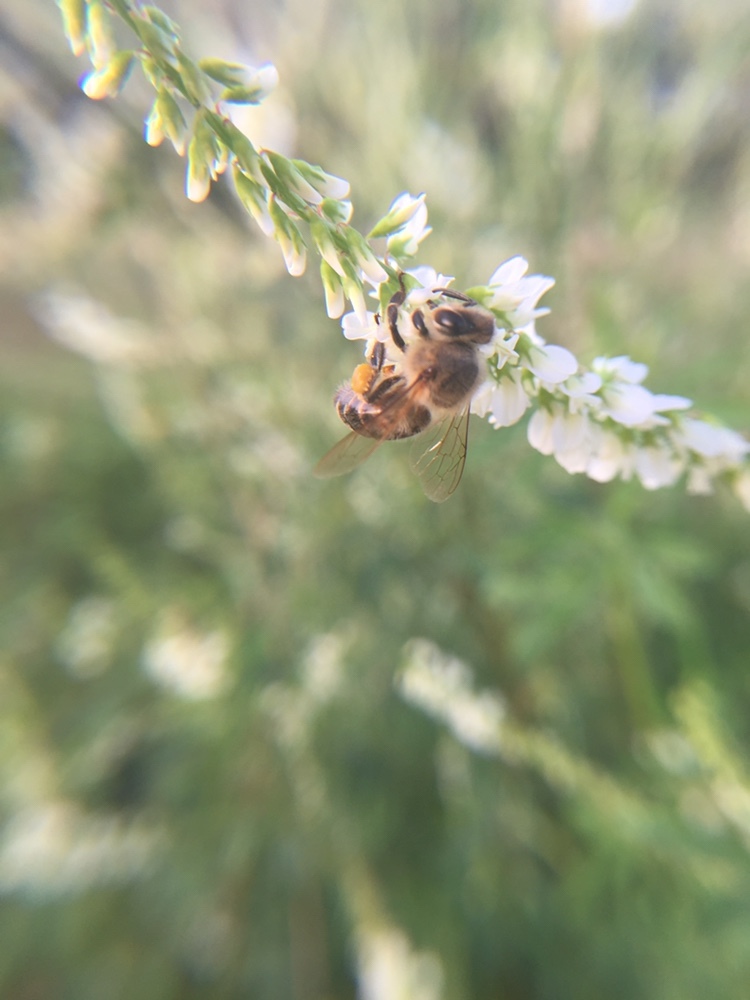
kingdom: Animalia
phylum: Arthropoda
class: Insecta
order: Hymenoptera
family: Apidae
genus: Apis
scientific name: Apis mellifera
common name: Honey bee
